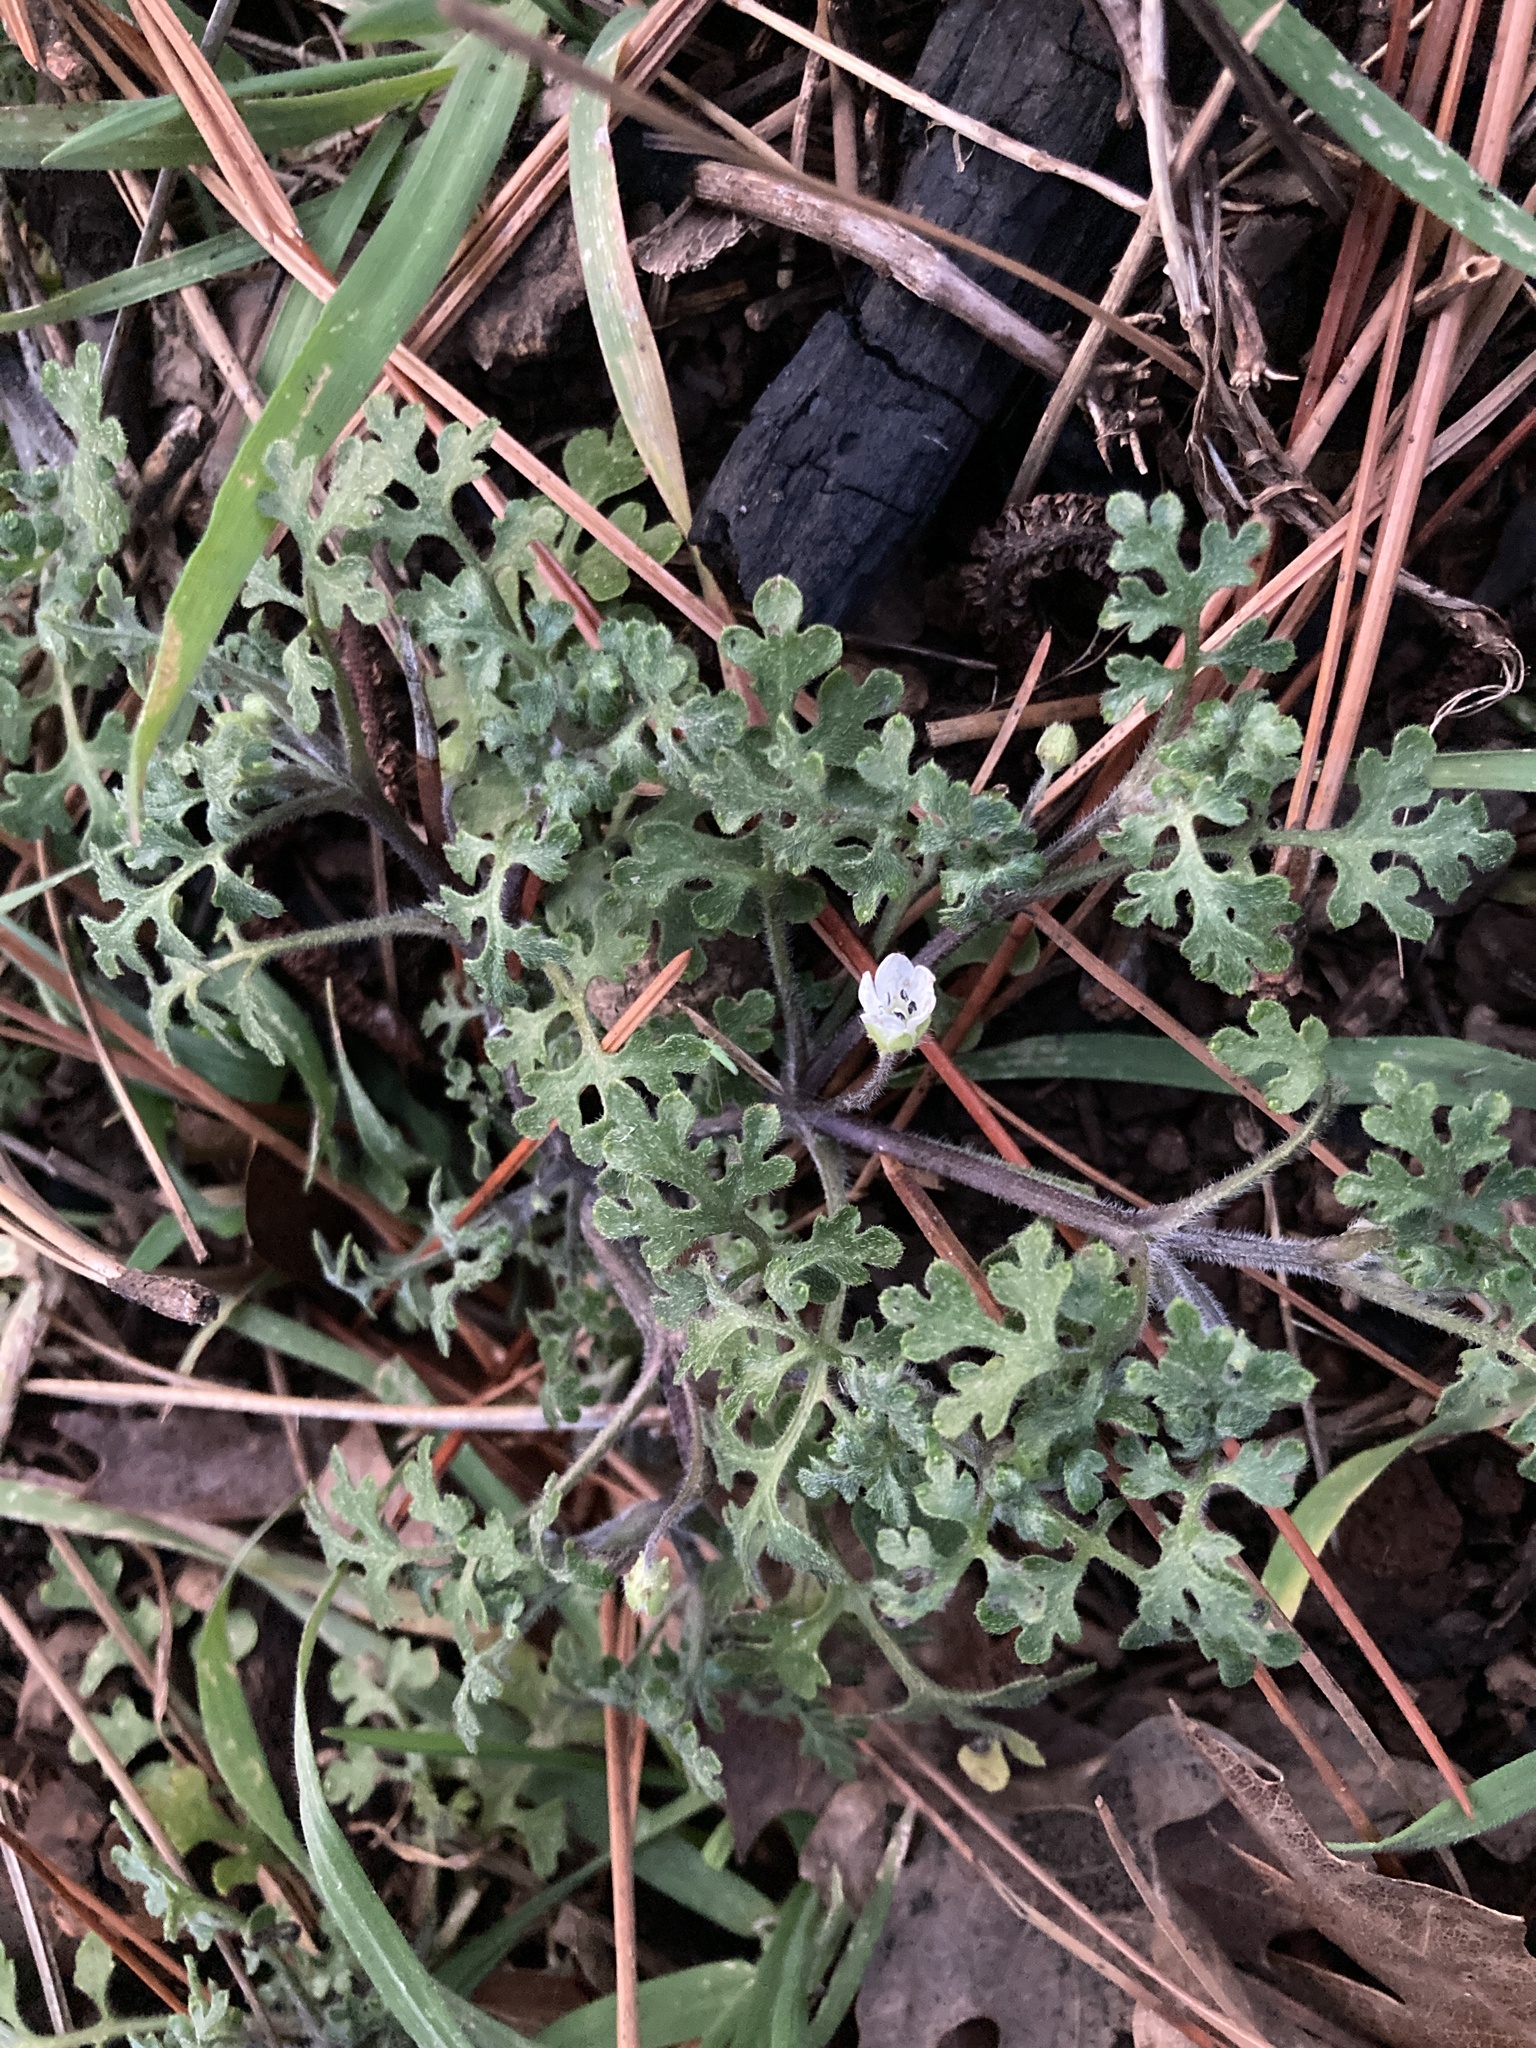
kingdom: Plantae
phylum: Tracheophyta
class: Magnoliopsida
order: Boraginales
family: Hydrophyllaceae
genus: Nemophila
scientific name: Nemophila heterophylla
